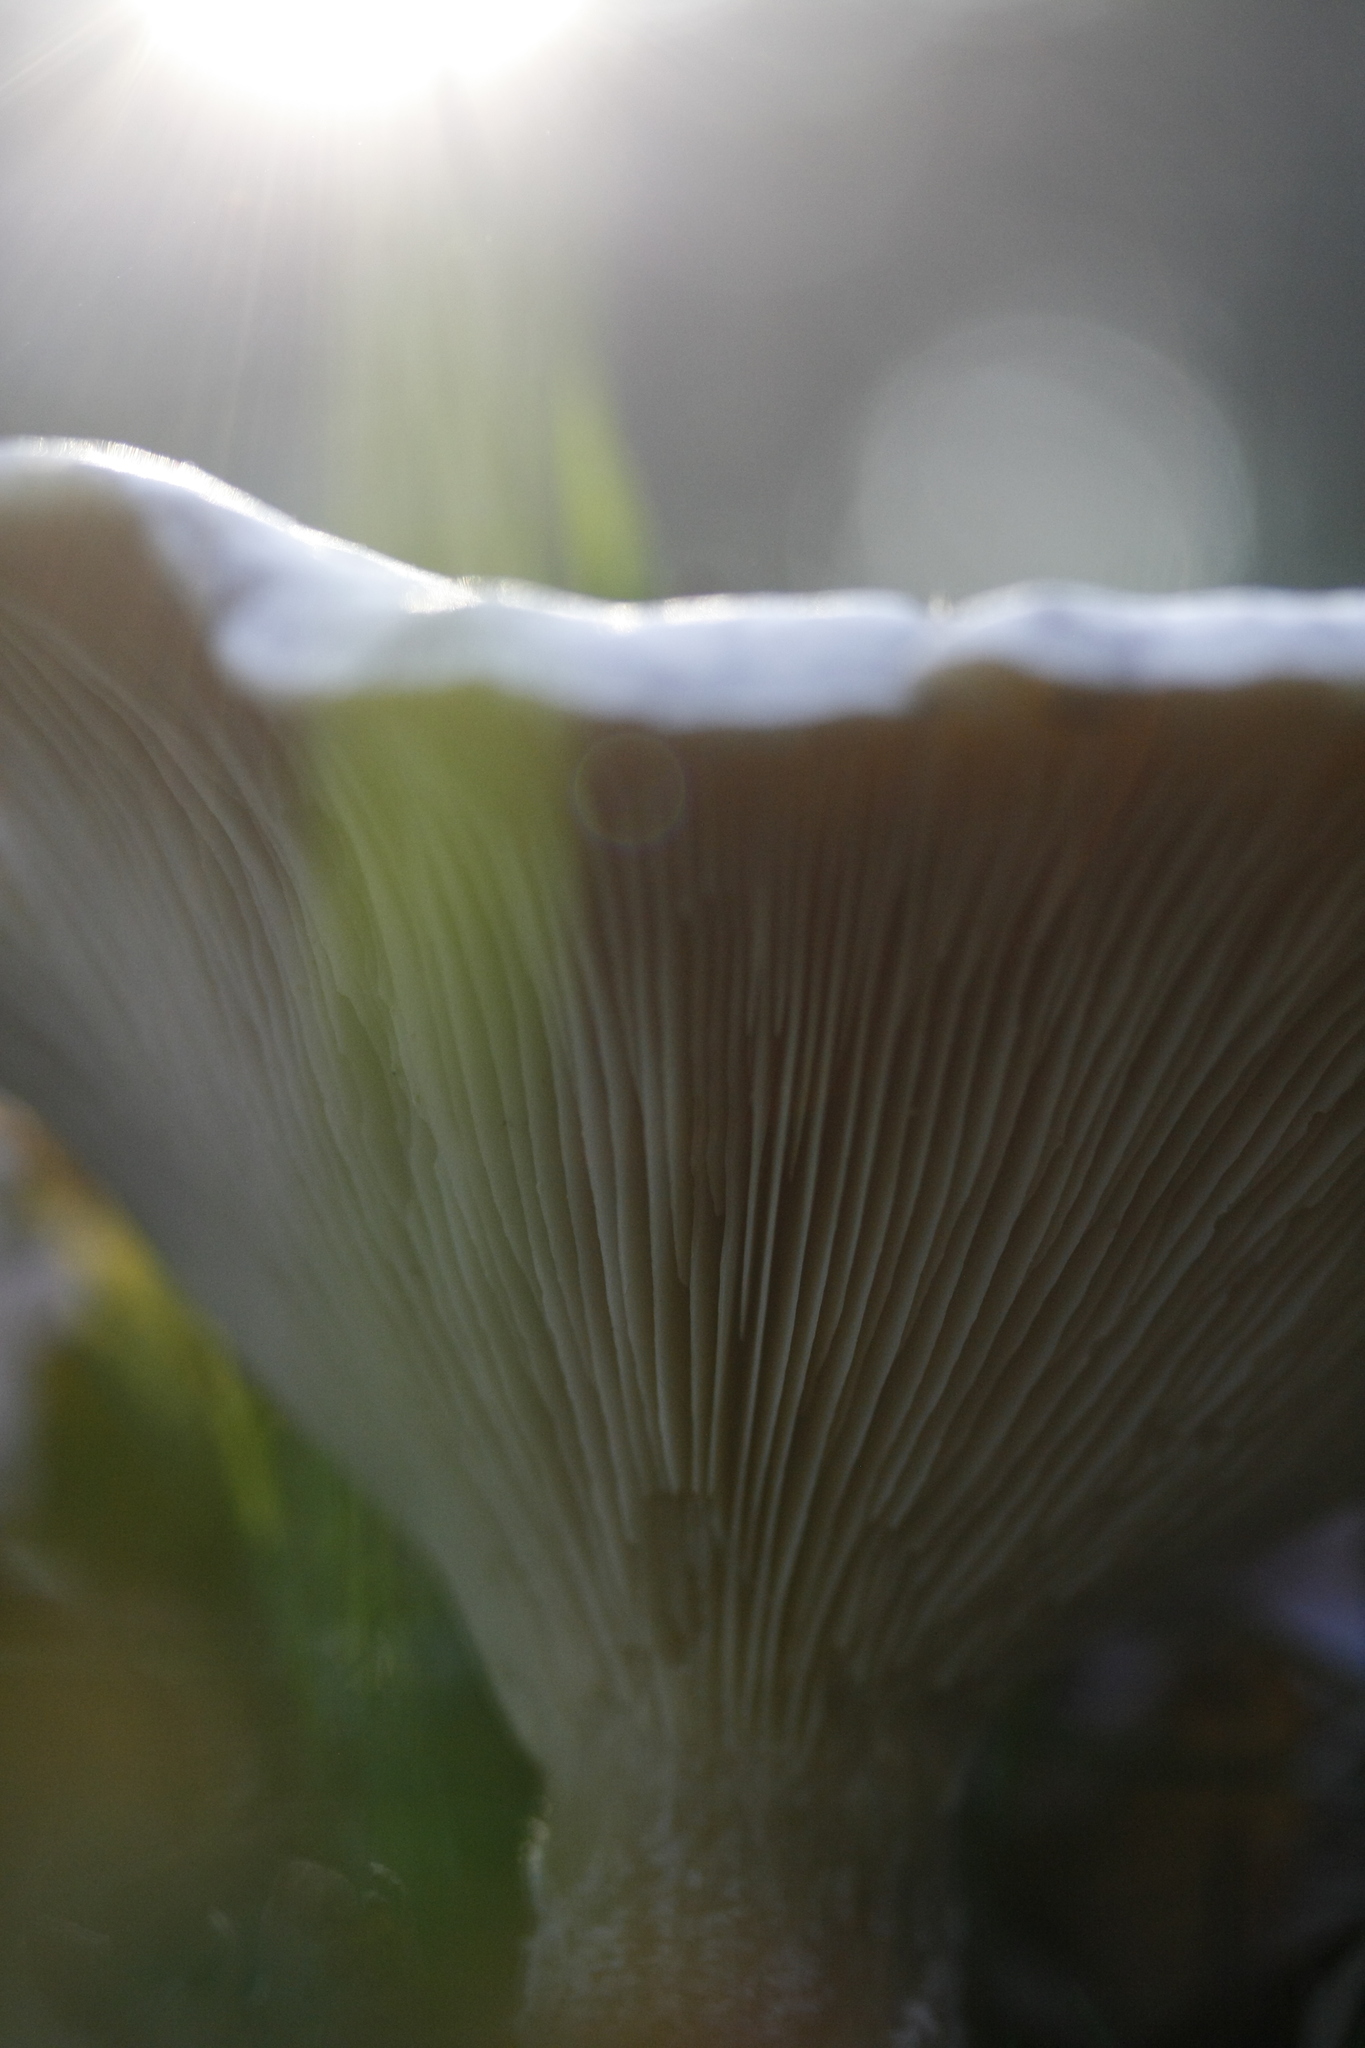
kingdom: Fungi
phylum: Basidiomycota
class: Agaricomycetes
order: Agaricales
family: Tricholomataceae
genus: Clitocybe
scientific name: Clitocybe nebularis
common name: Clouded agaric
